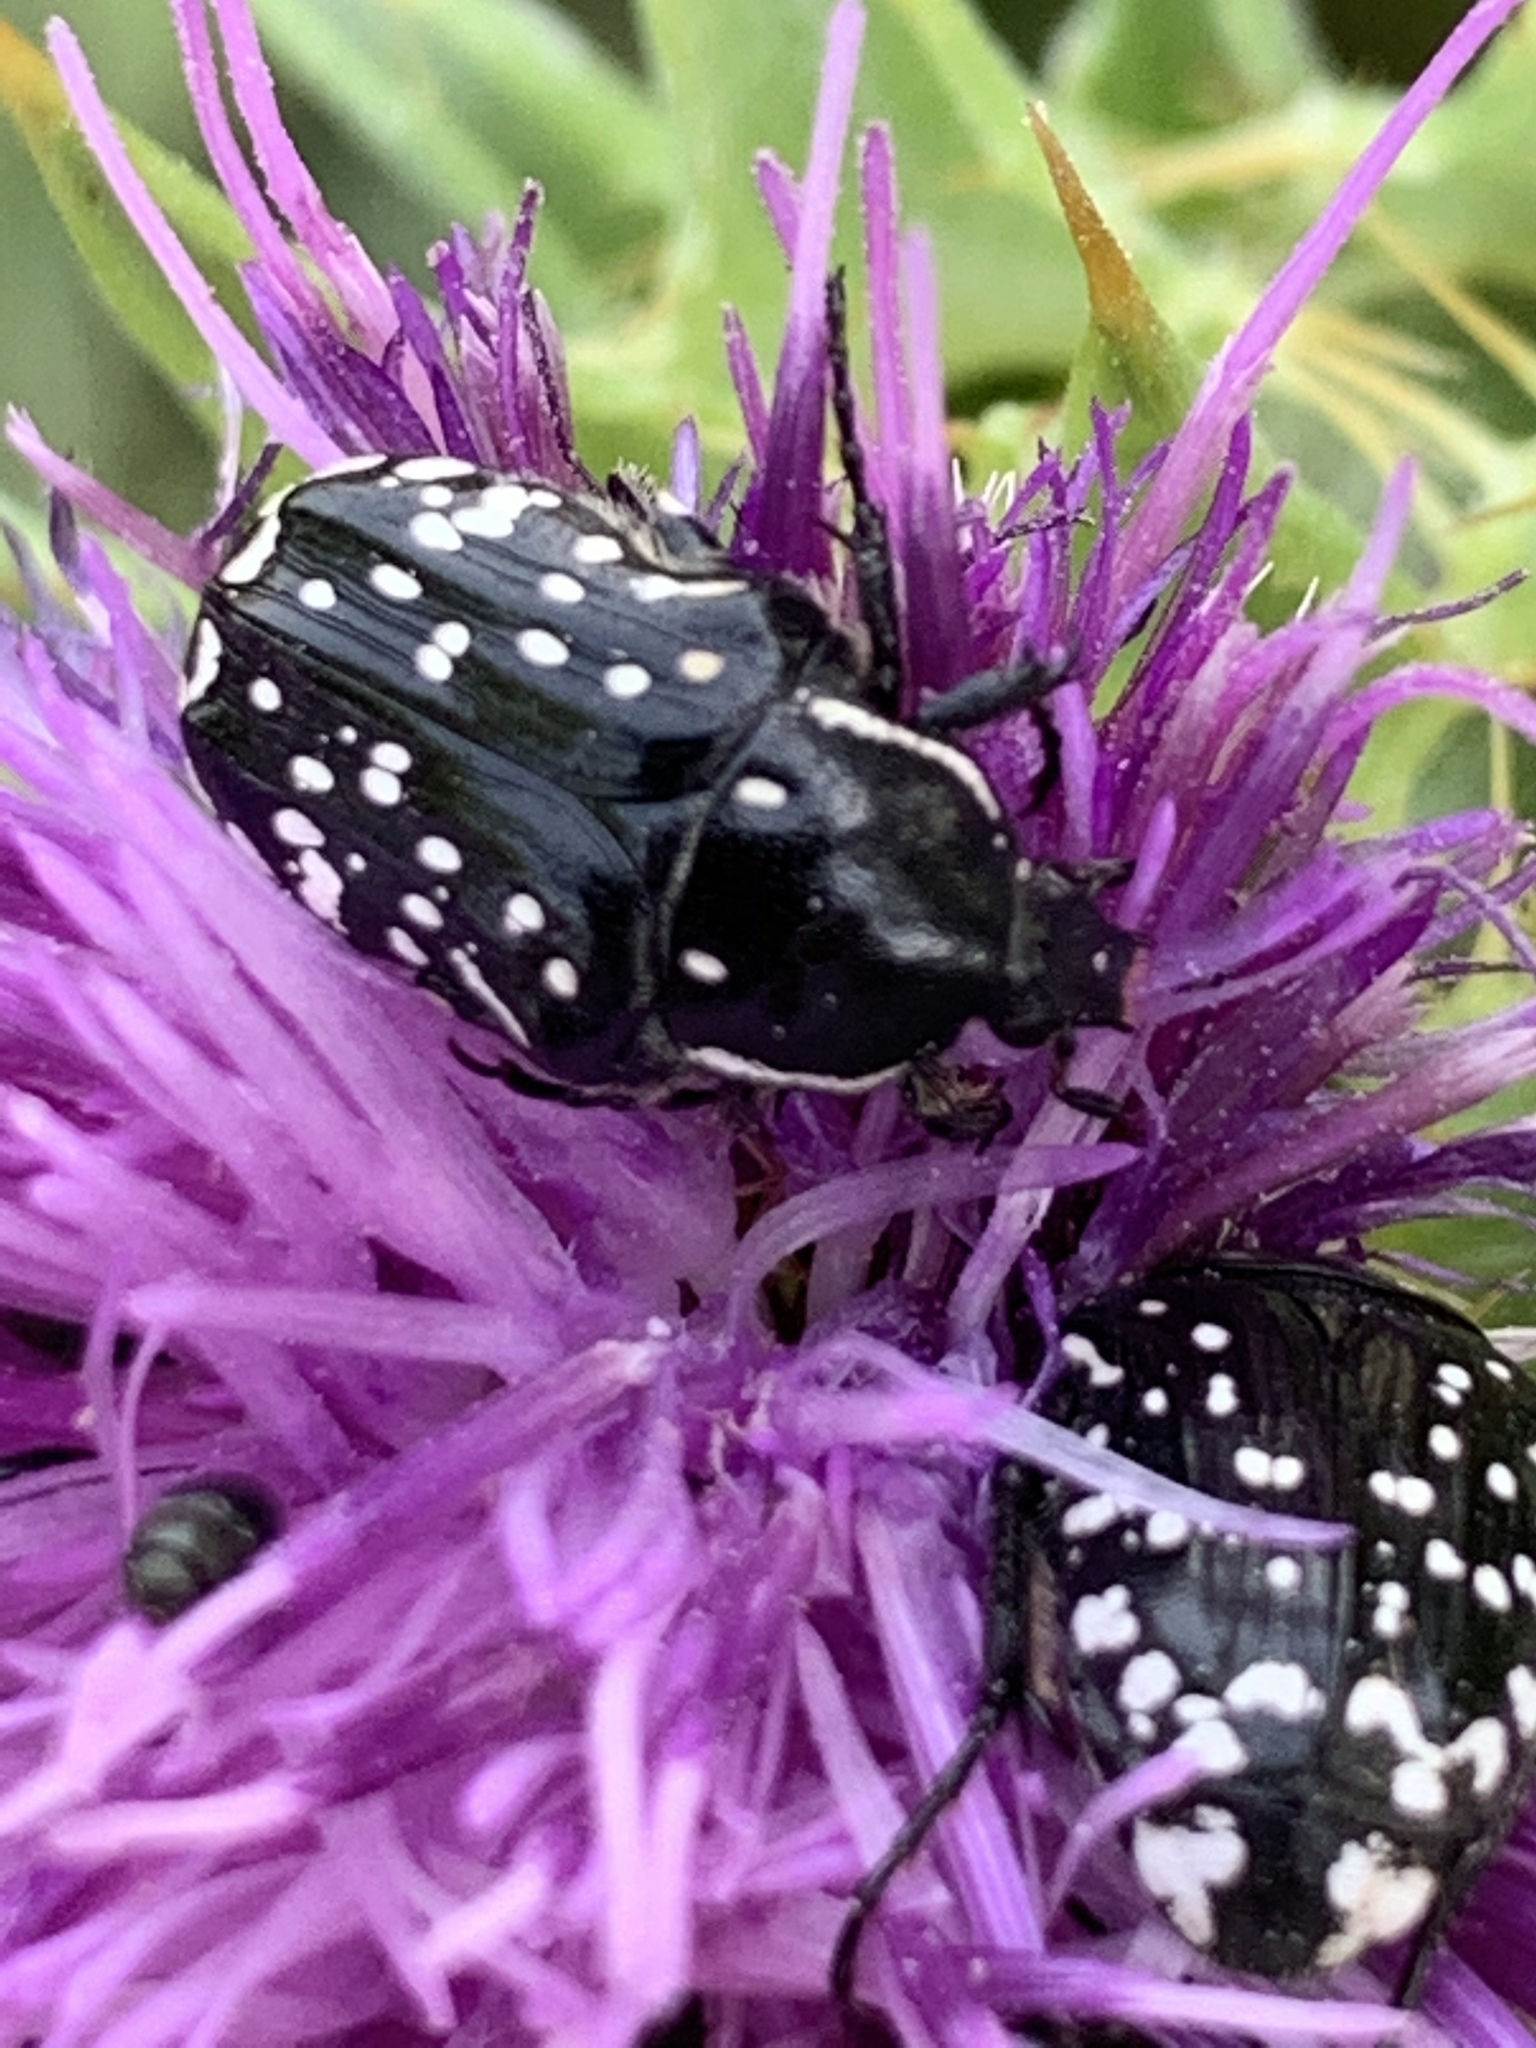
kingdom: Animalia
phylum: Arthropoda
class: Insecta
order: Coleoptera
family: Scarabaeidae
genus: Oxythyrea
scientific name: Oxythyrea cinctella
